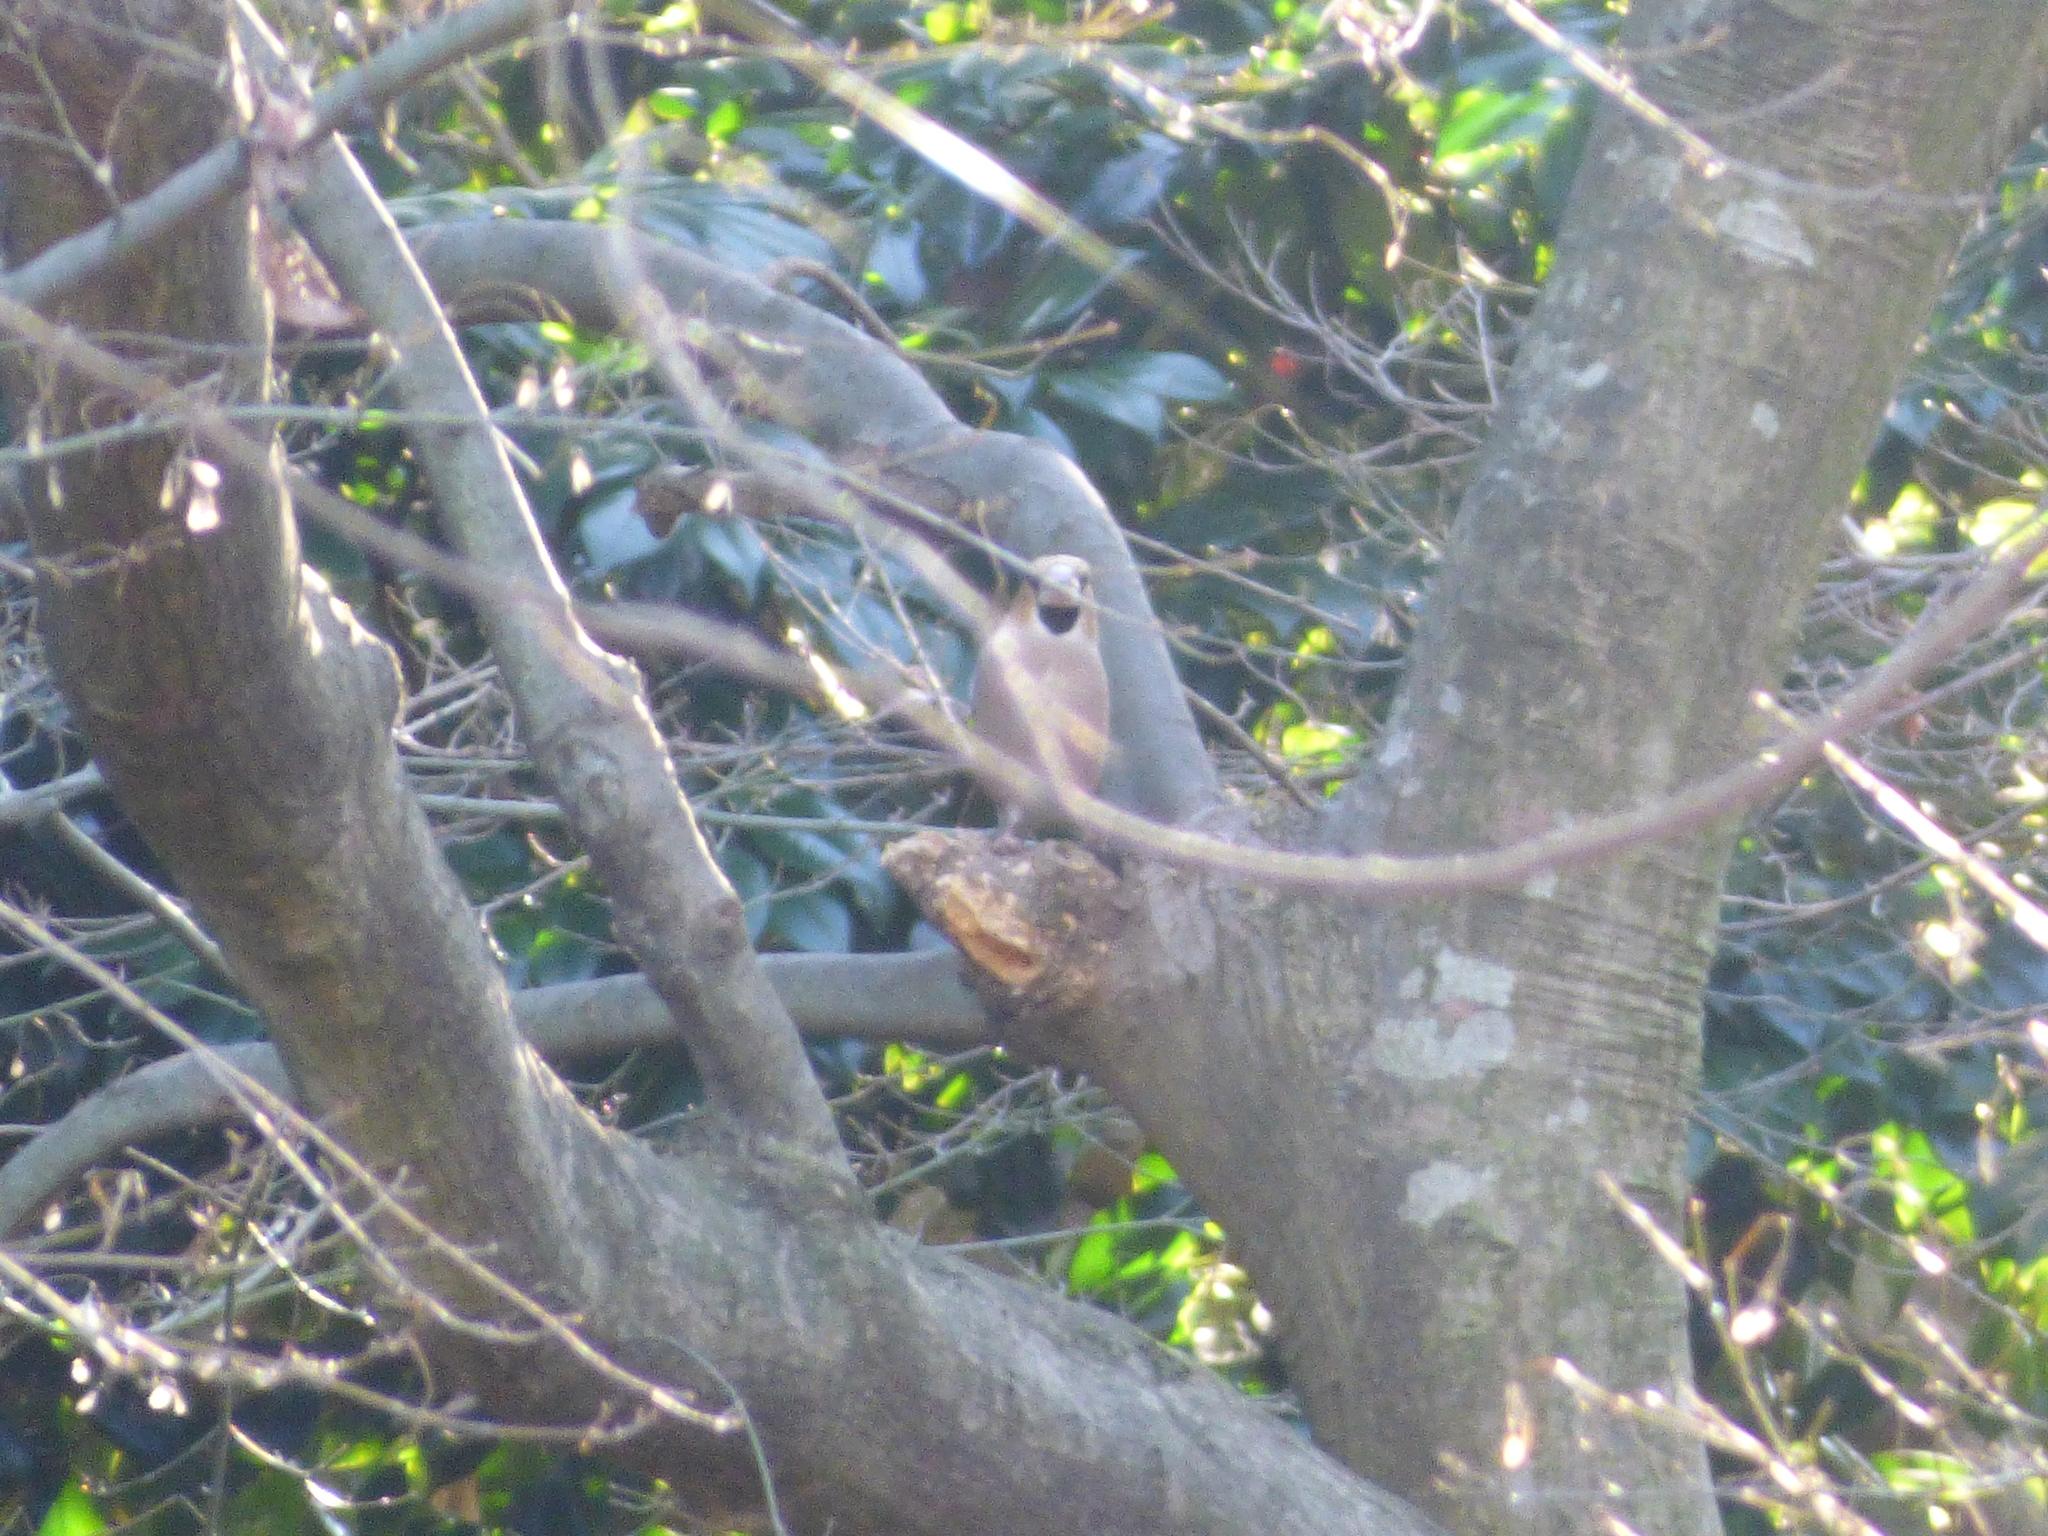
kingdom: Animalia
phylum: Chordata
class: Aves
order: Passeriformes
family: Fringillidae
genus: Coccothraustes
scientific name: Coccothraustes coccothraustes
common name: Hawfinch
